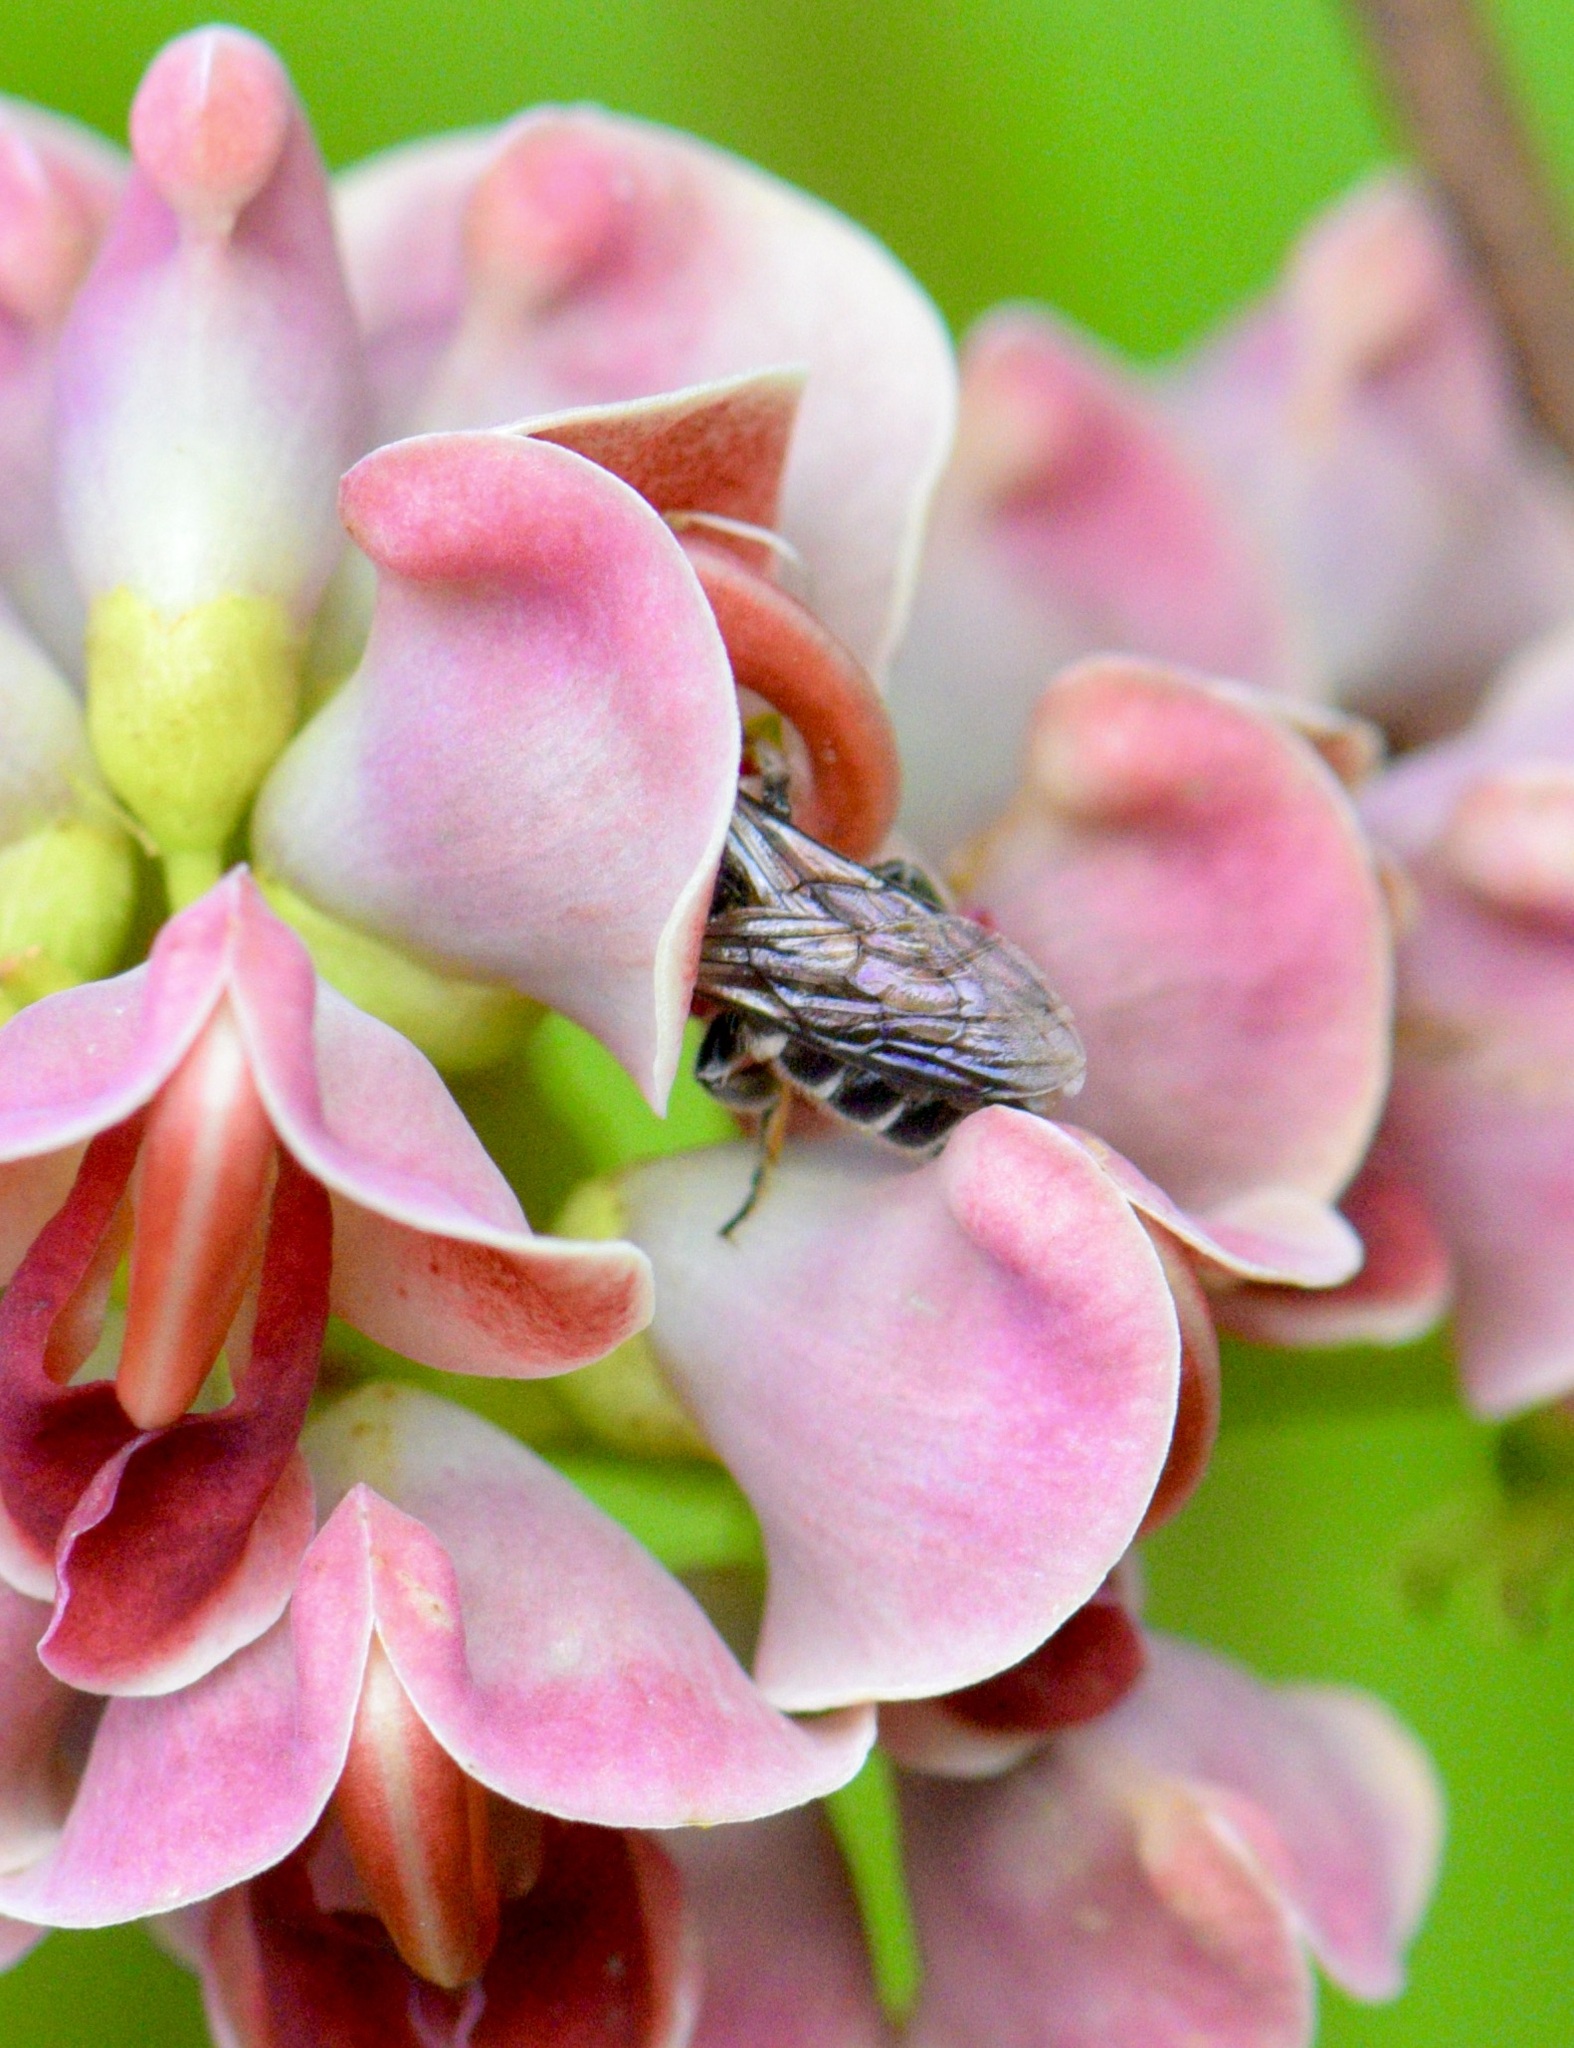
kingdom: Animalia
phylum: Arthropoda
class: Insecta
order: Hymenoptera
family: Megachilidae
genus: Megachile
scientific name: Megachile campanulae
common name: Bellflower resin bee
